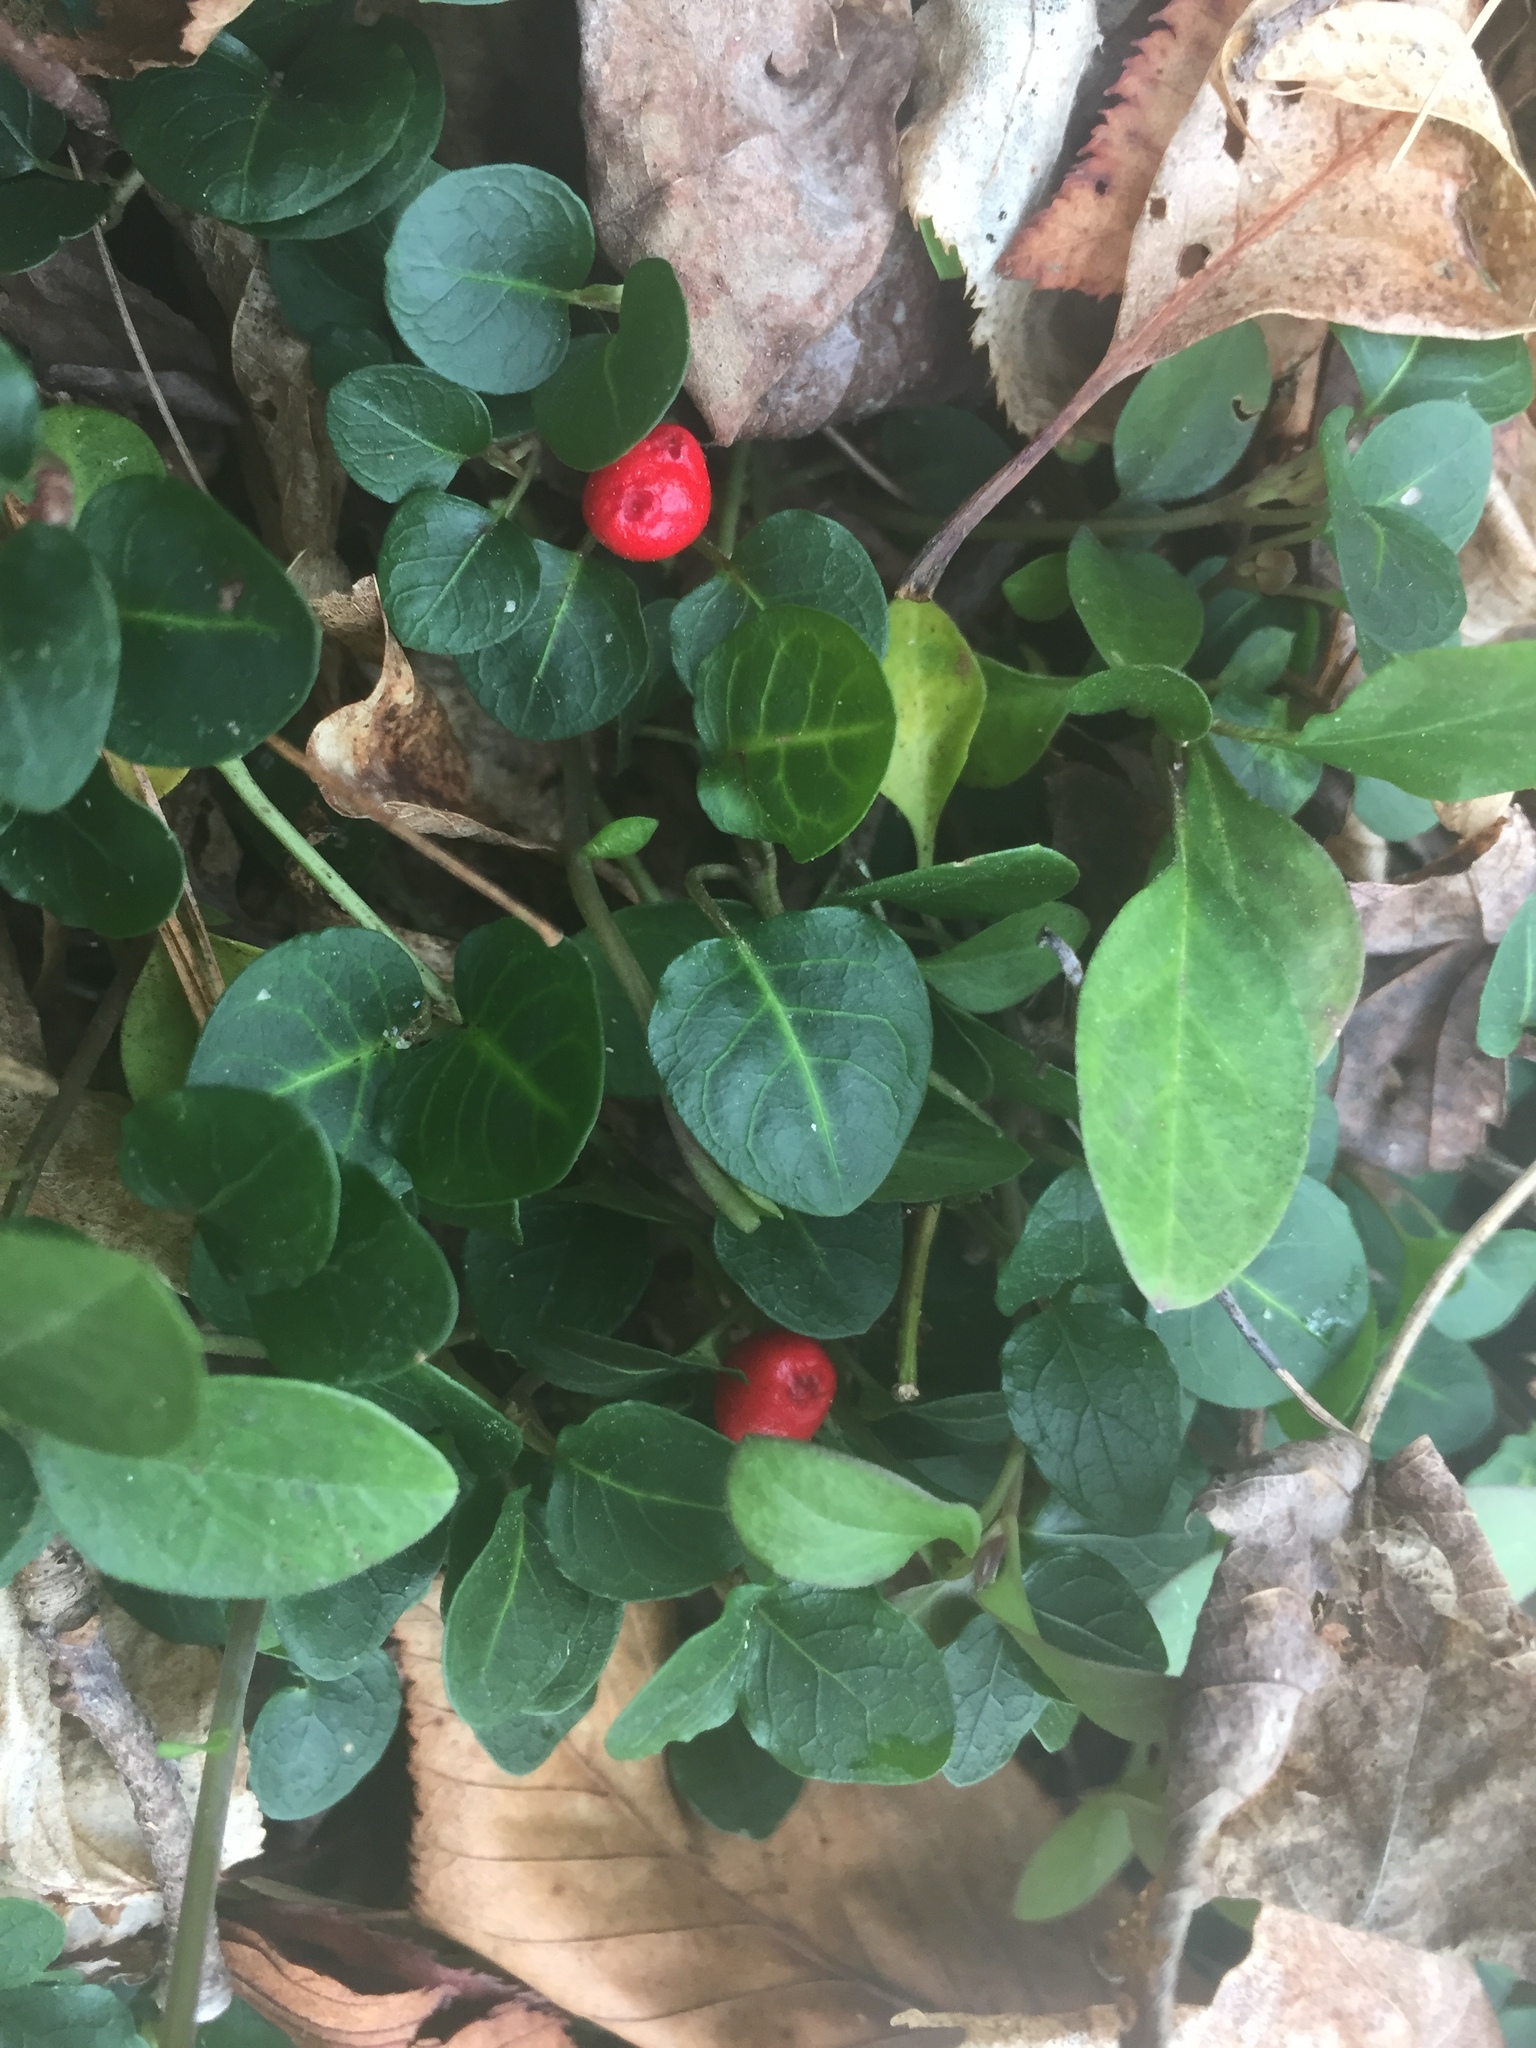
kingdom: Plantae
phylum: Tracheophyta
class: Magnoliopsida
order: Gentianales
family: Rubiaceae
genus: Mitchella
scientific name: Mitchella repens
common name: Partridge-berry
